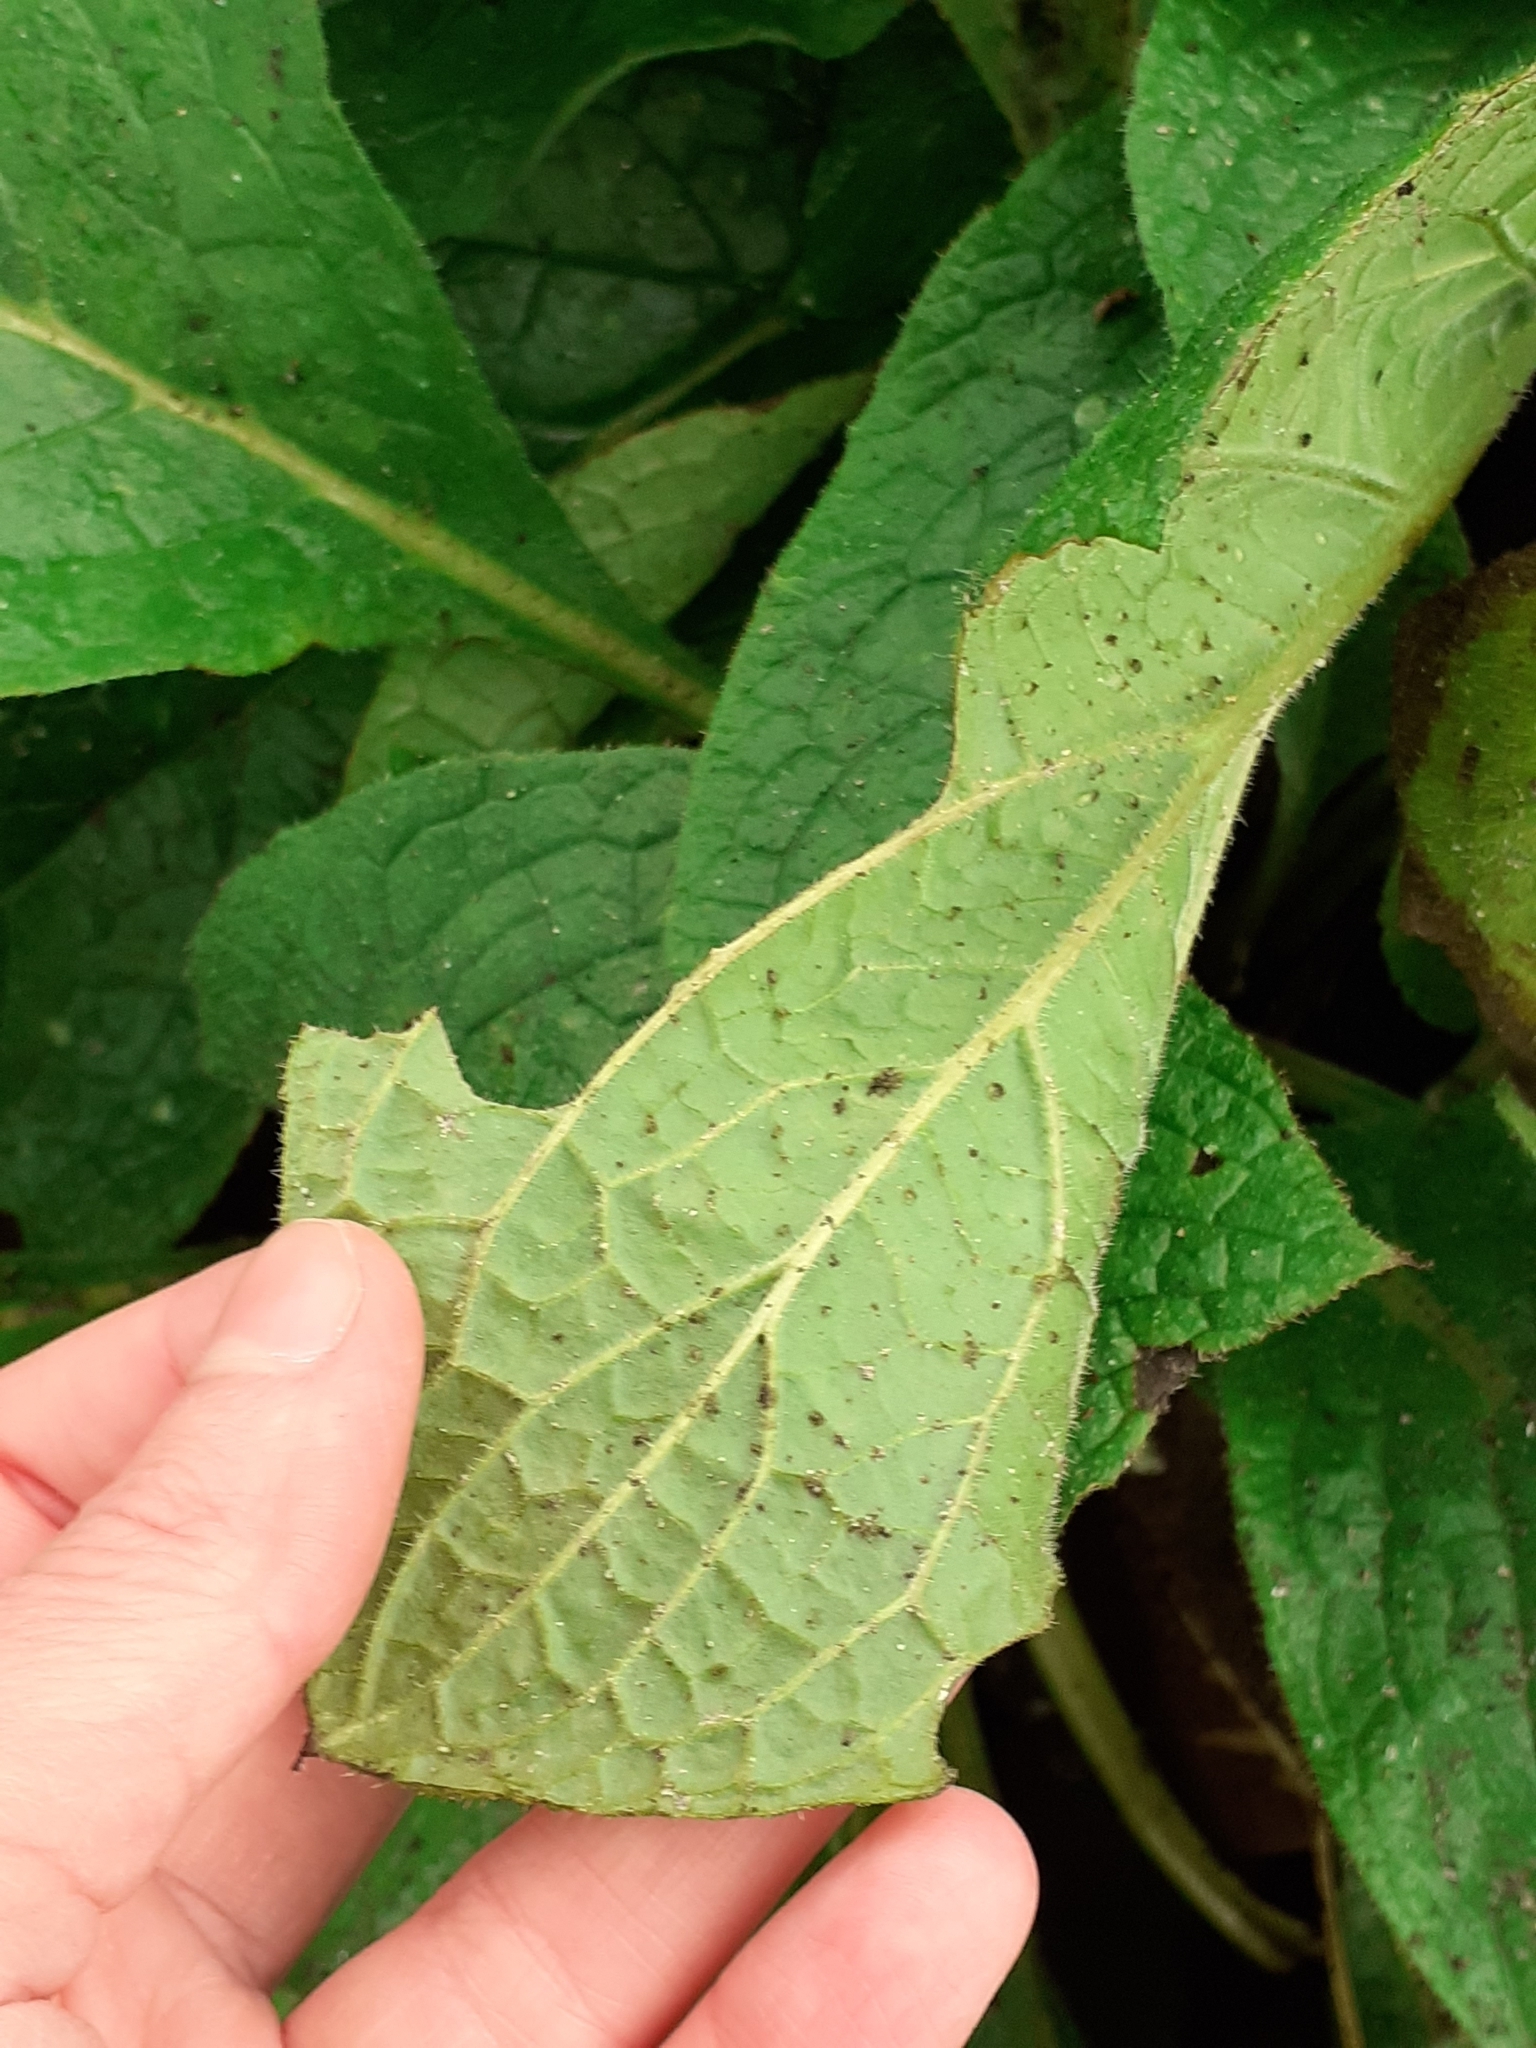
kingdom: Plantae
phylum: Tracheophyta
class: Magnoliopsida
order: Boraginales
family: Boraginaceae
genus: Pentaglottis
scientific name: Pentaglottis sempervirens
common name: Green alkanet
